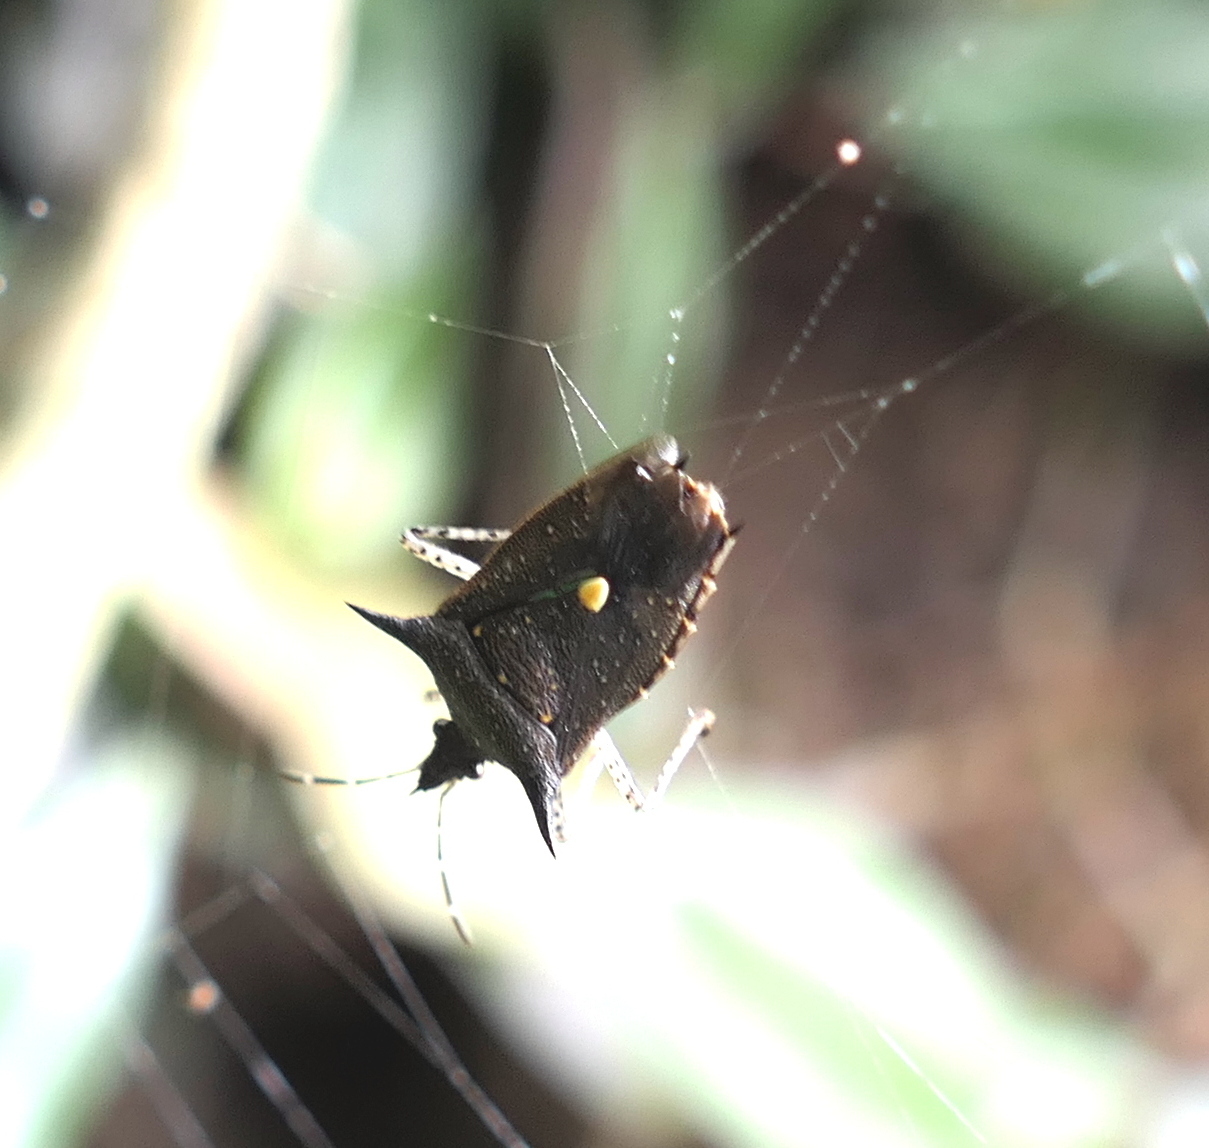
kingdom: Animalia
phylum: Arthropoda
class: Insecta
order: Hemiptera
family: Pentatomidae
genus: Proxys
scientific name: Proxys albopunctulatus
